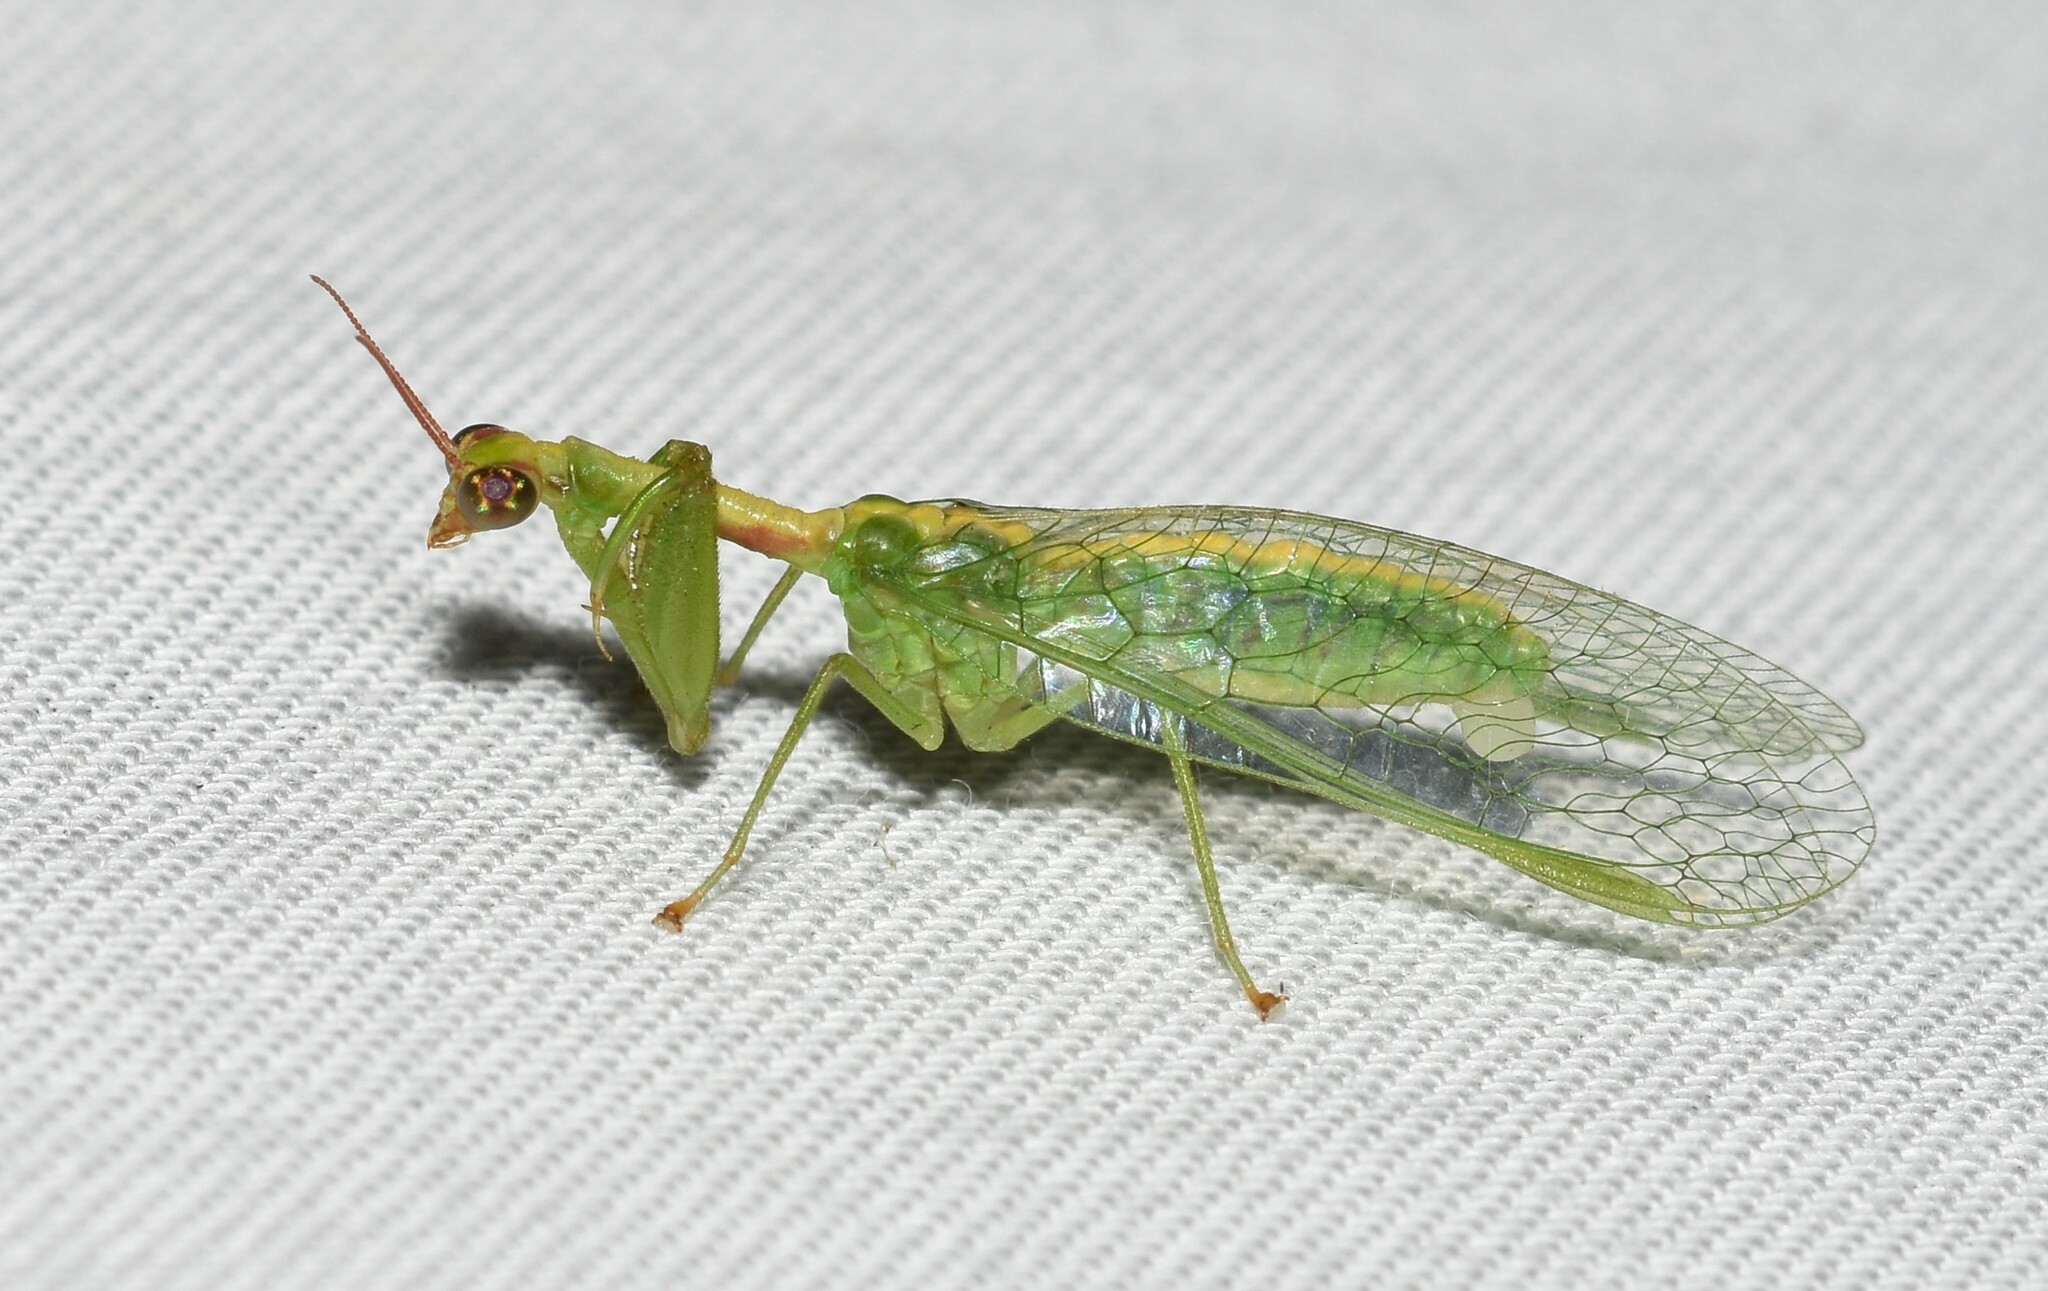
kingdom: Animalia
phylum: Arthropoda
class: Insecta
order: Neuroptera
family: Mantispidae
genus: Zeugomantispa
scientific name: Zeugomantispa minuta
